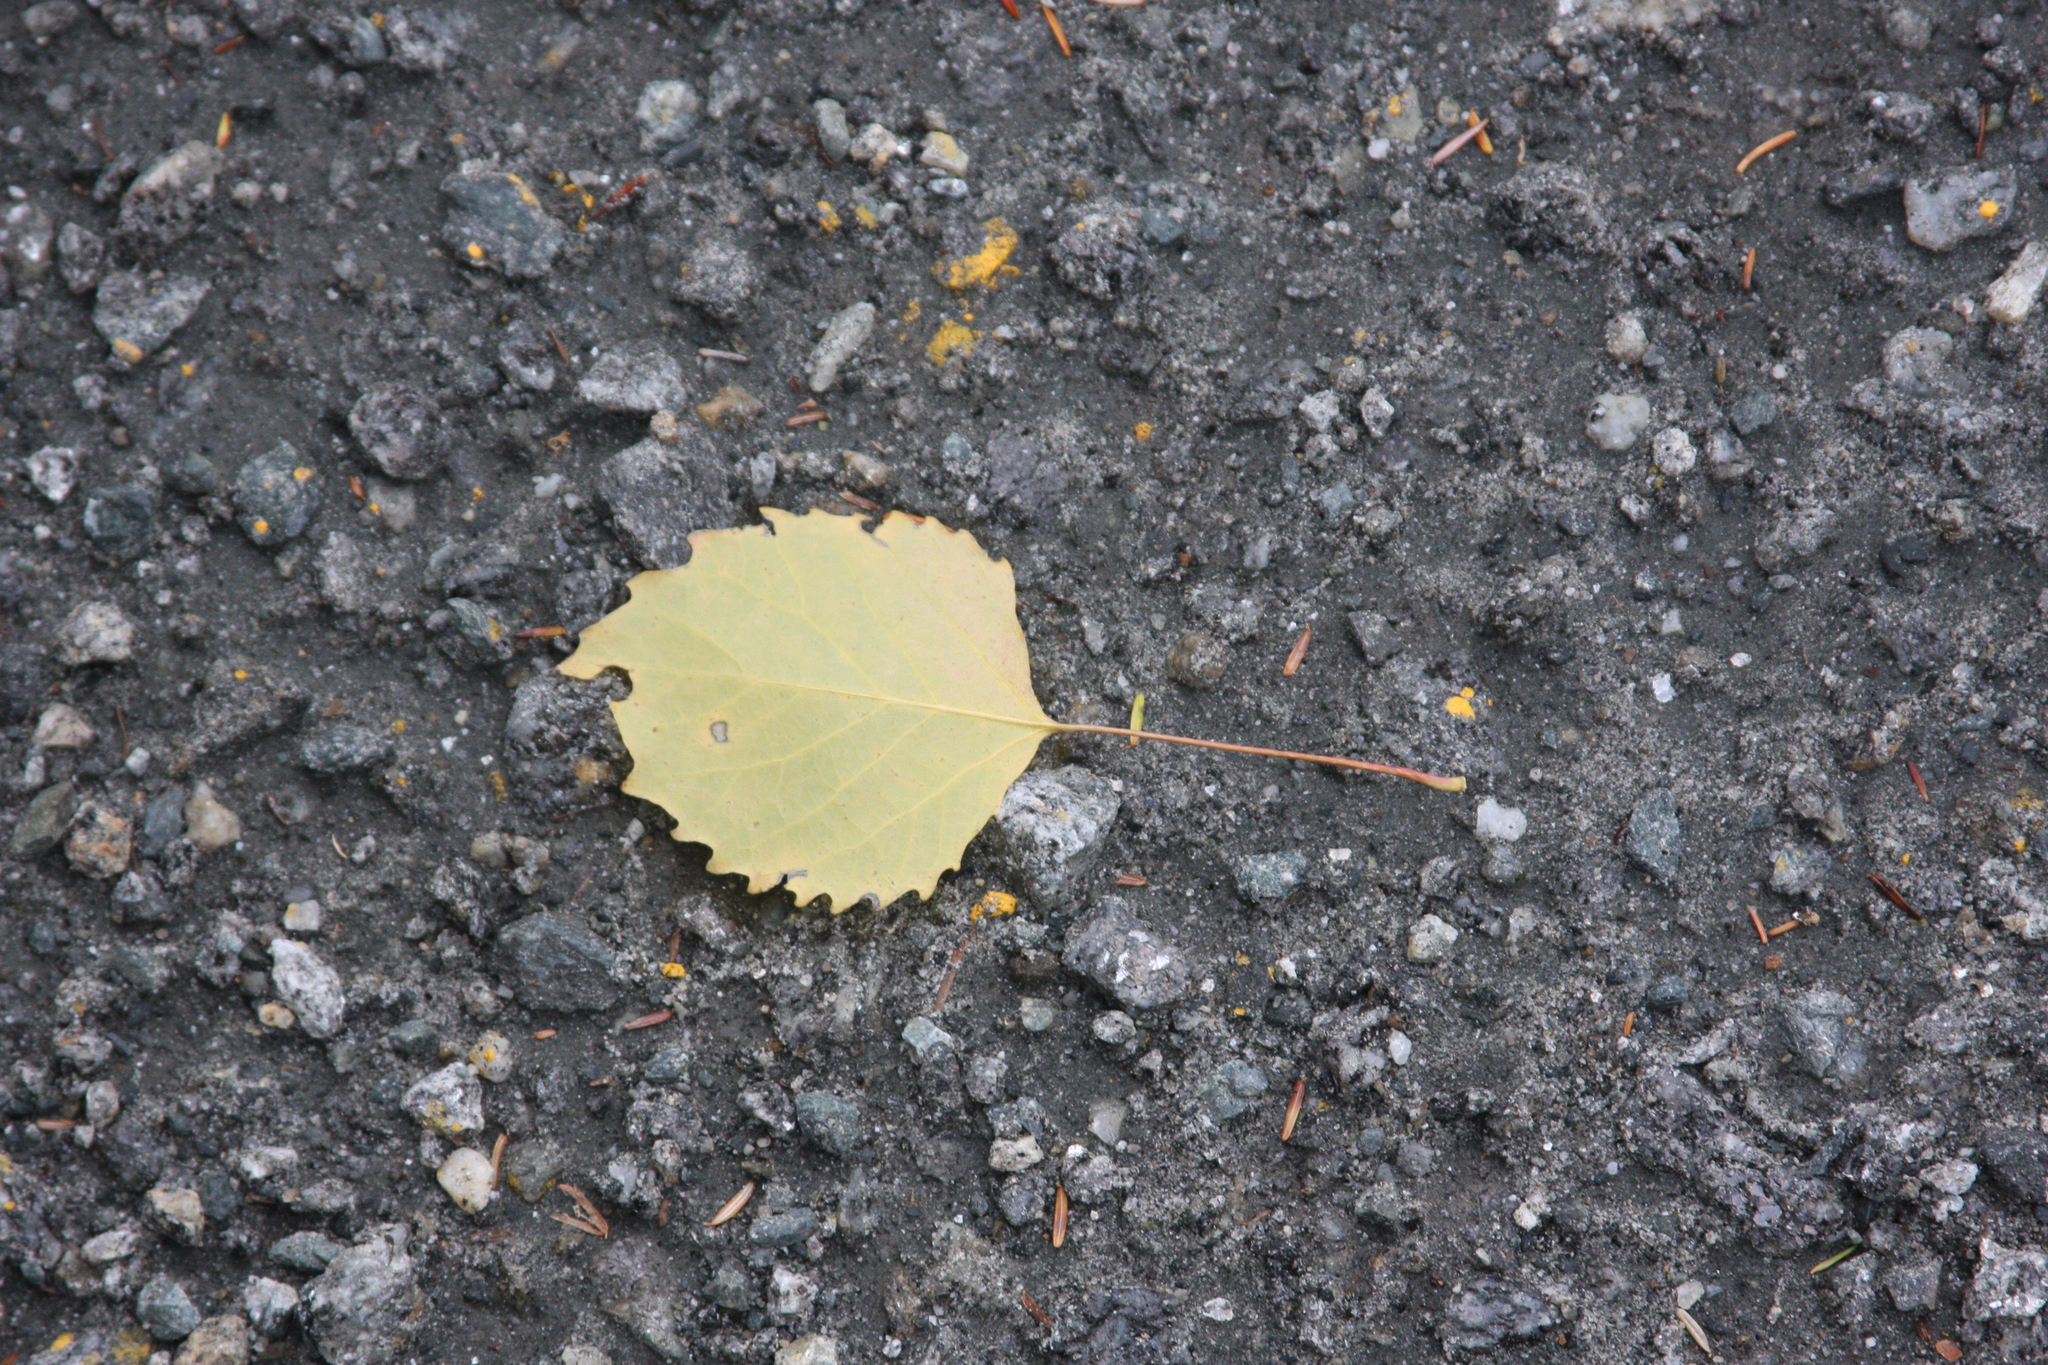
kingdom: Plantae
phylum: Tracheophyta
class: Magnoliopsida
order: Malpighiales
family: Salicaceae
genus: Populus
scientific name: Populus grandidentata
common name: Bigtooth aspen
